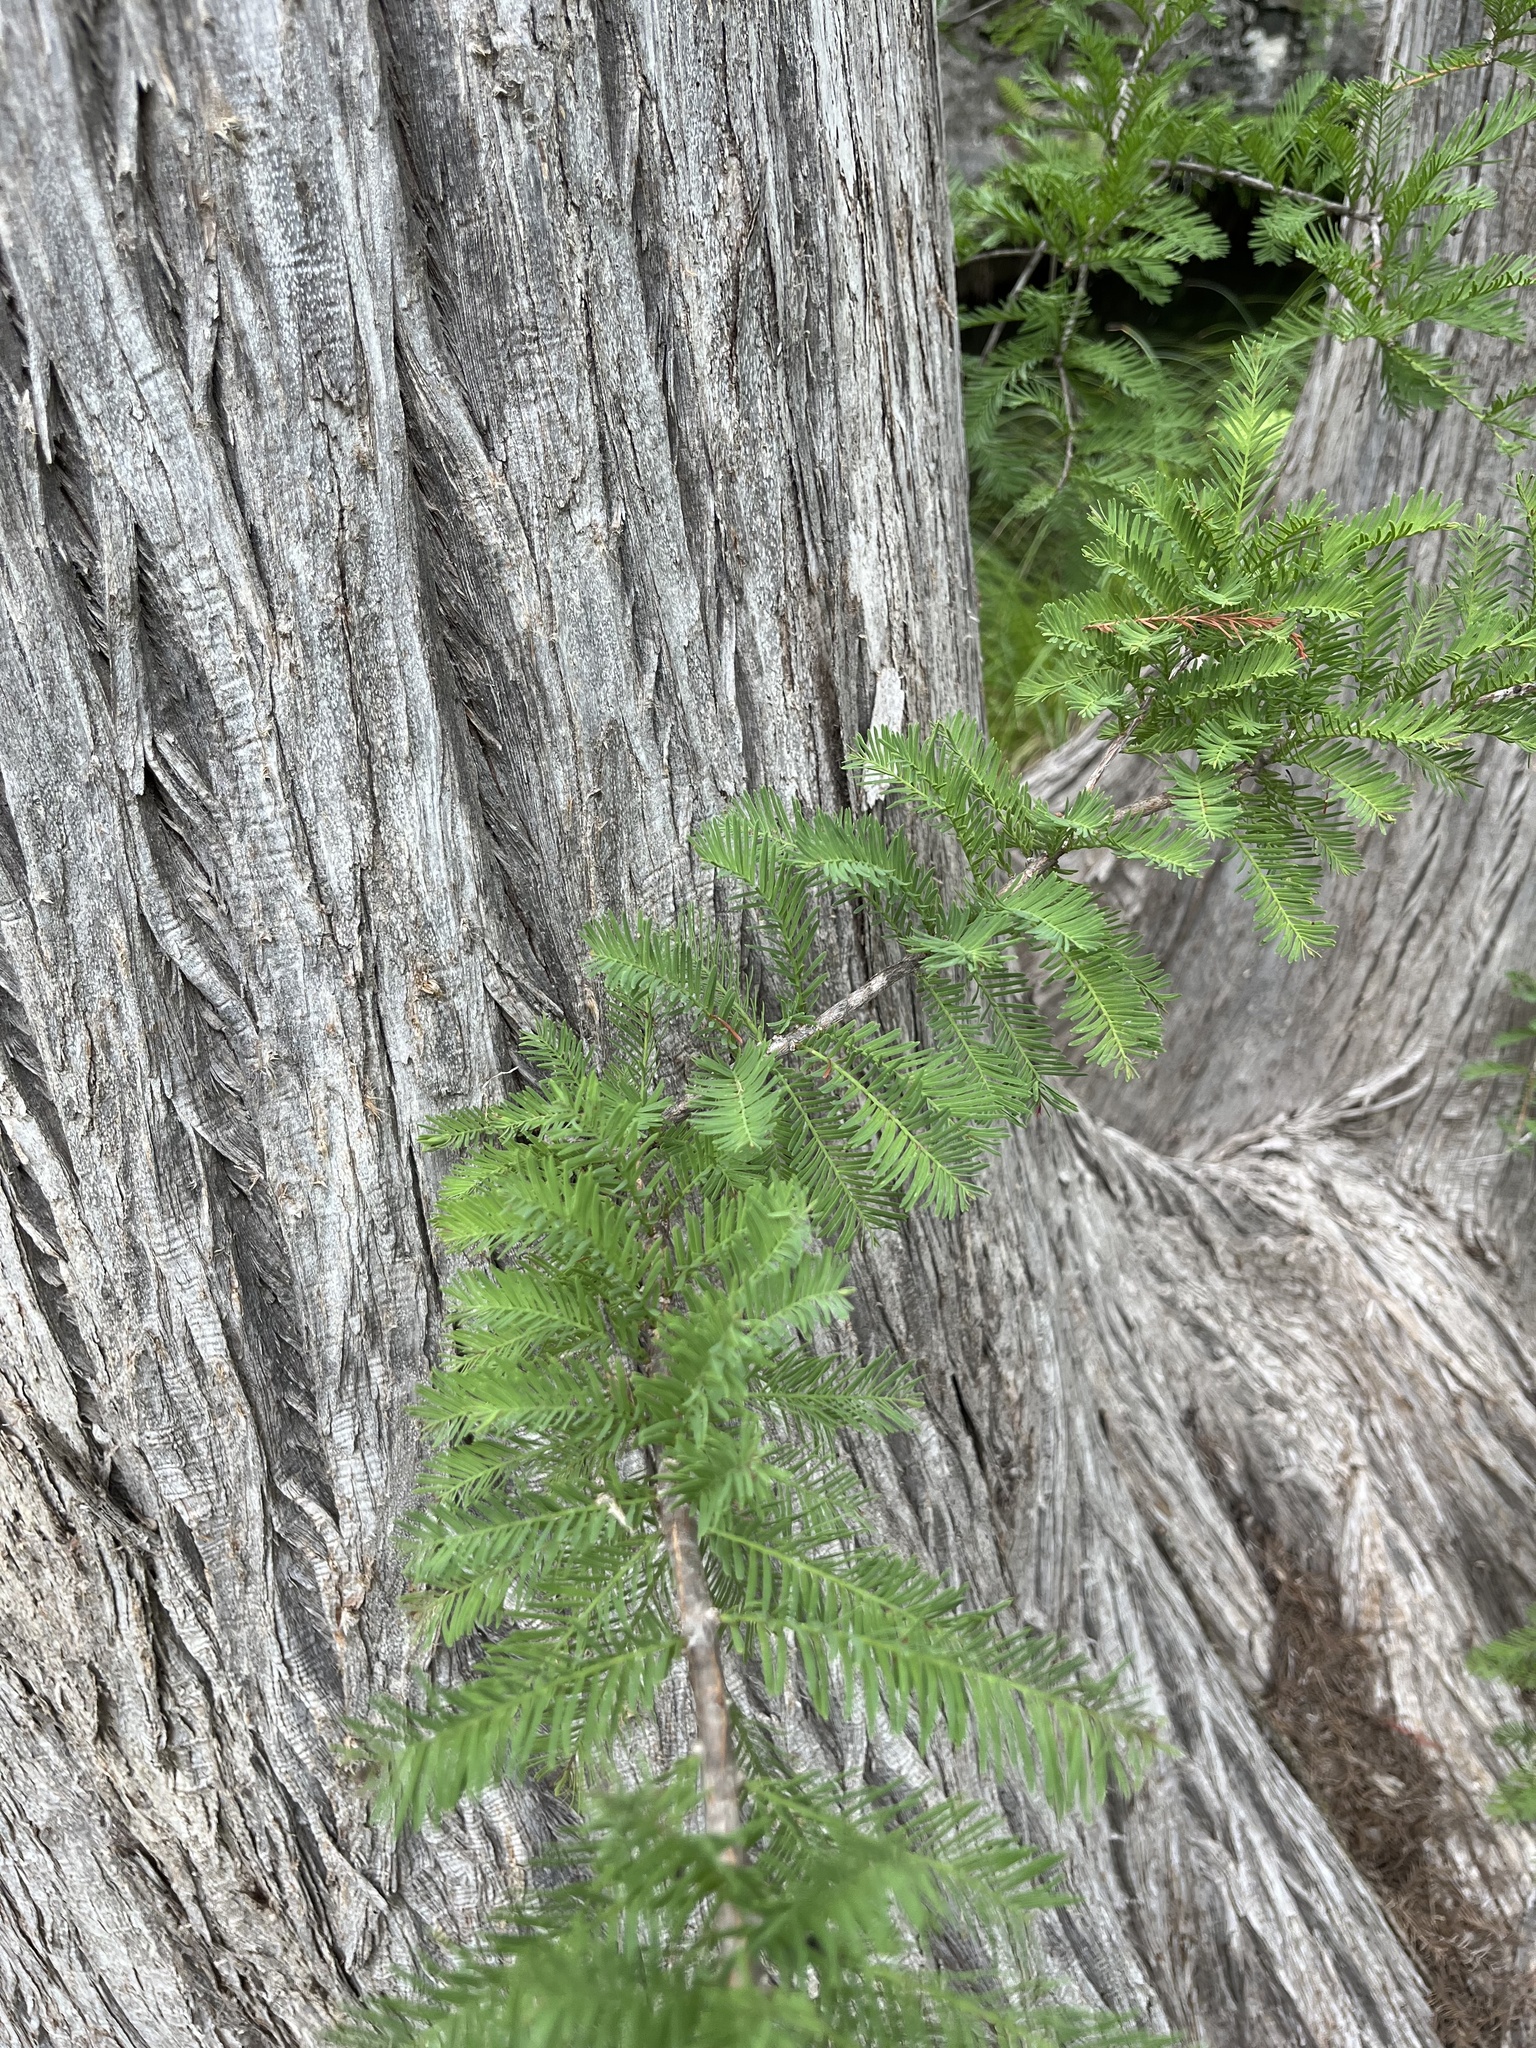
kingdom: Plantae
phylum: Tracheophyta
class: Pinopsida
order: Pinales
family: Cupressaceae
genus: Taxodium
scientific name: Taxodium distichum
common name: Bald cypress
